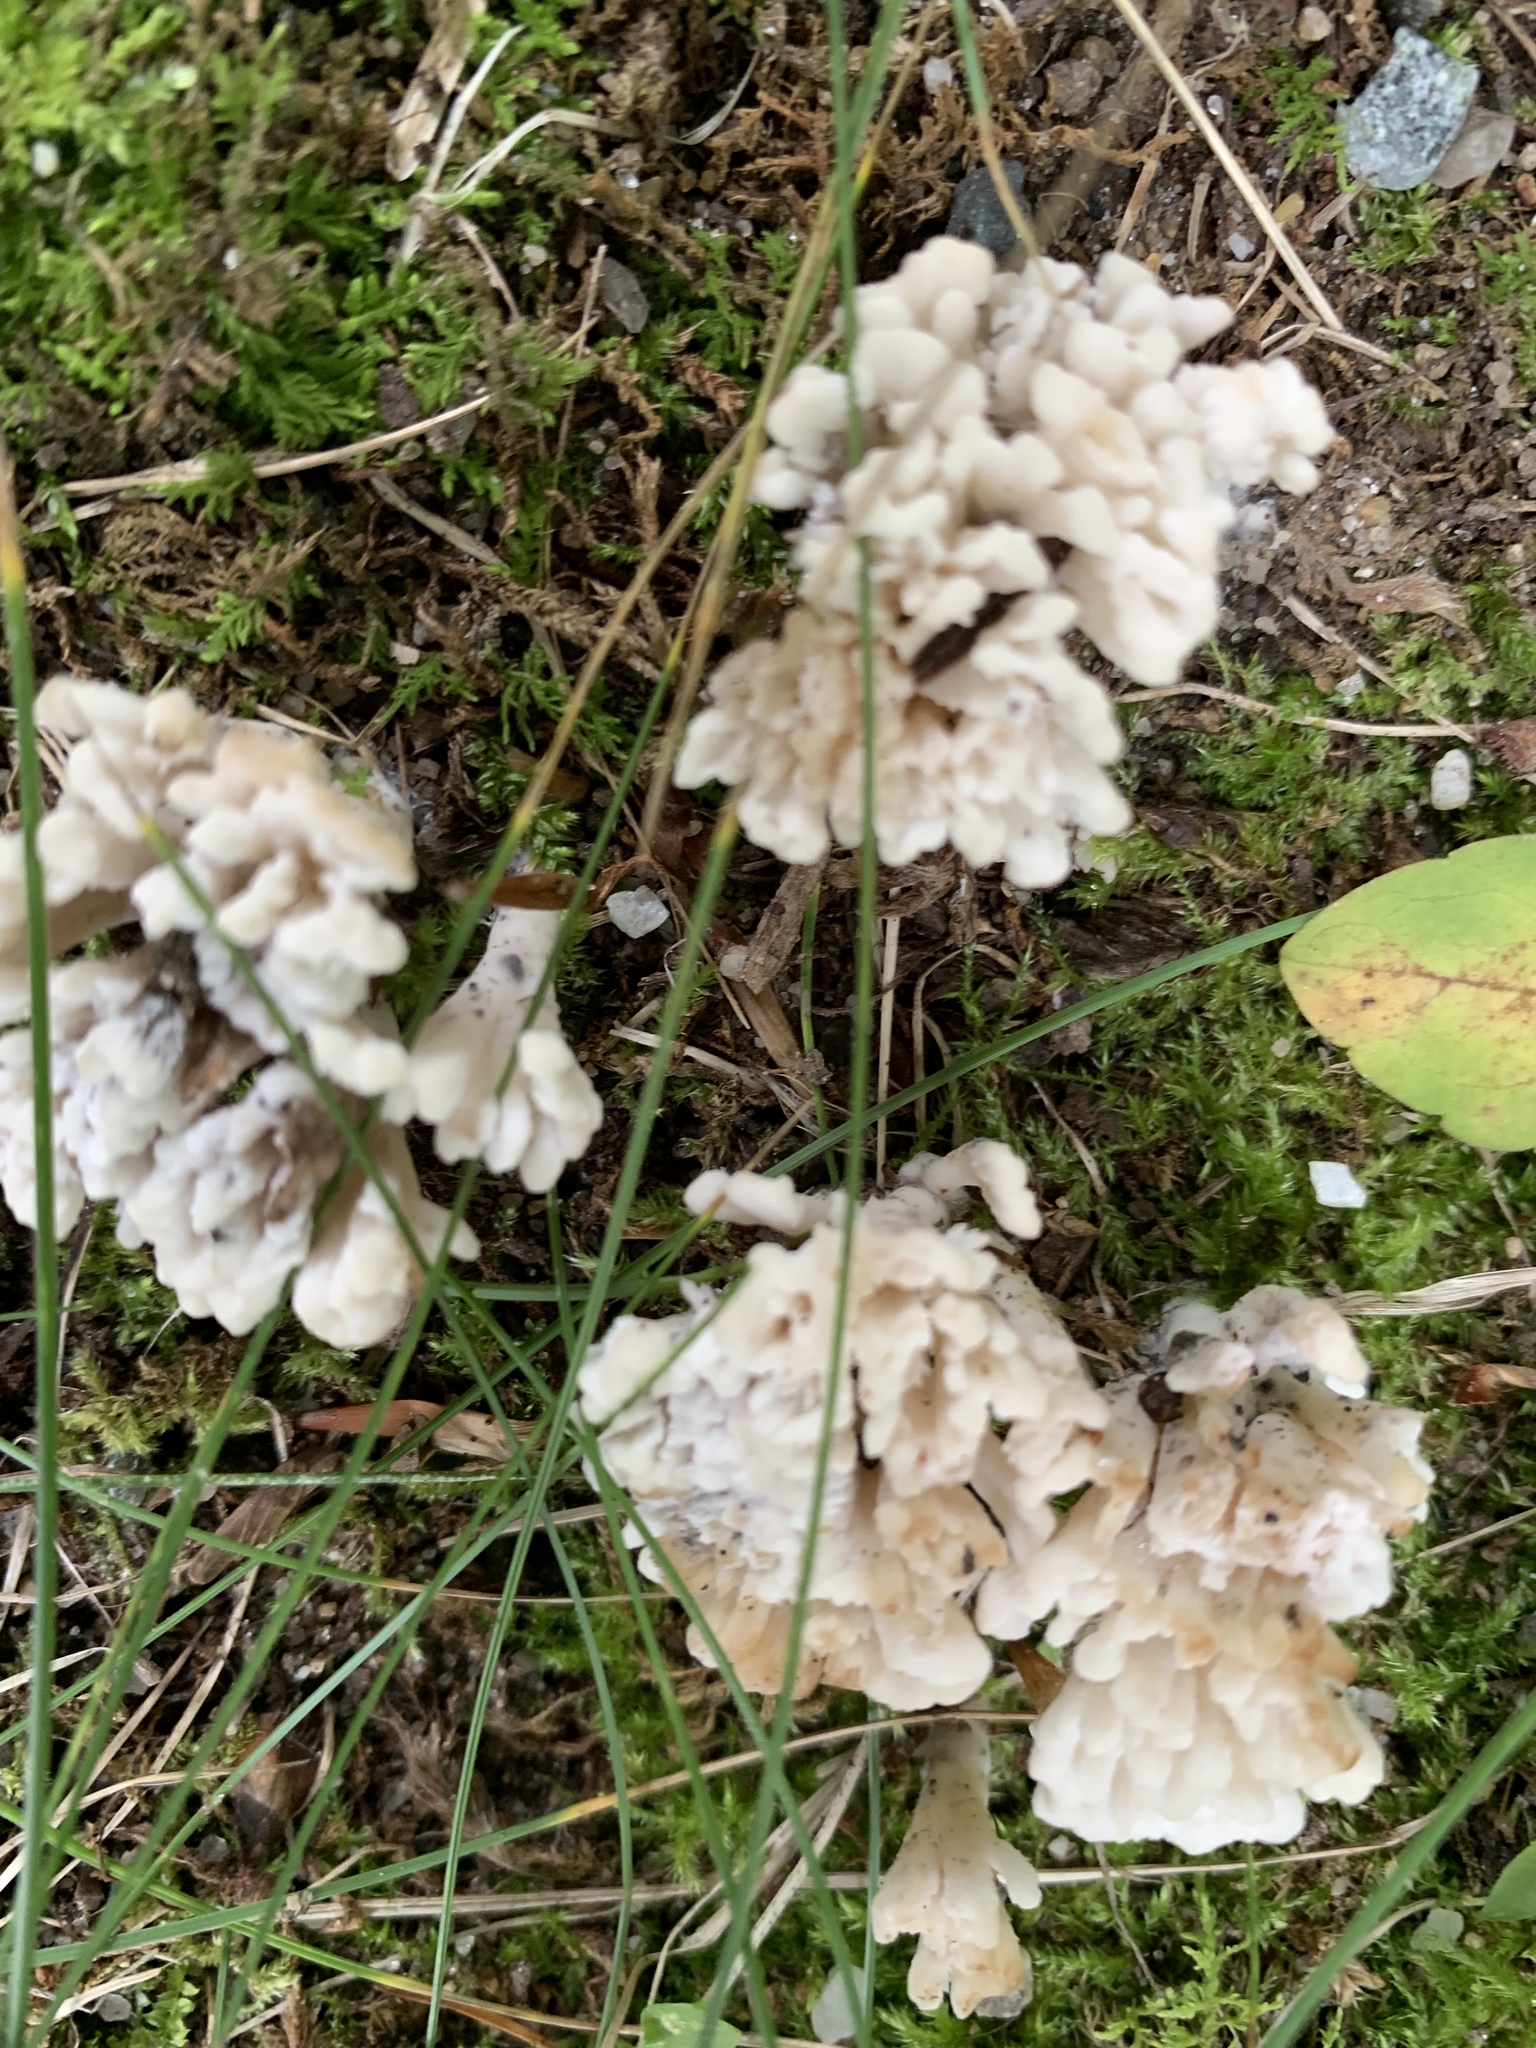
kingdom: Fungi
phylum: Basidiomycota
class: Agaricomycetes
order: Sebacinales
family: Sebacinaceae
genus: Sebacina
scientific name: Sebacina schweinitzii
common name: Jellied false coral fungus
